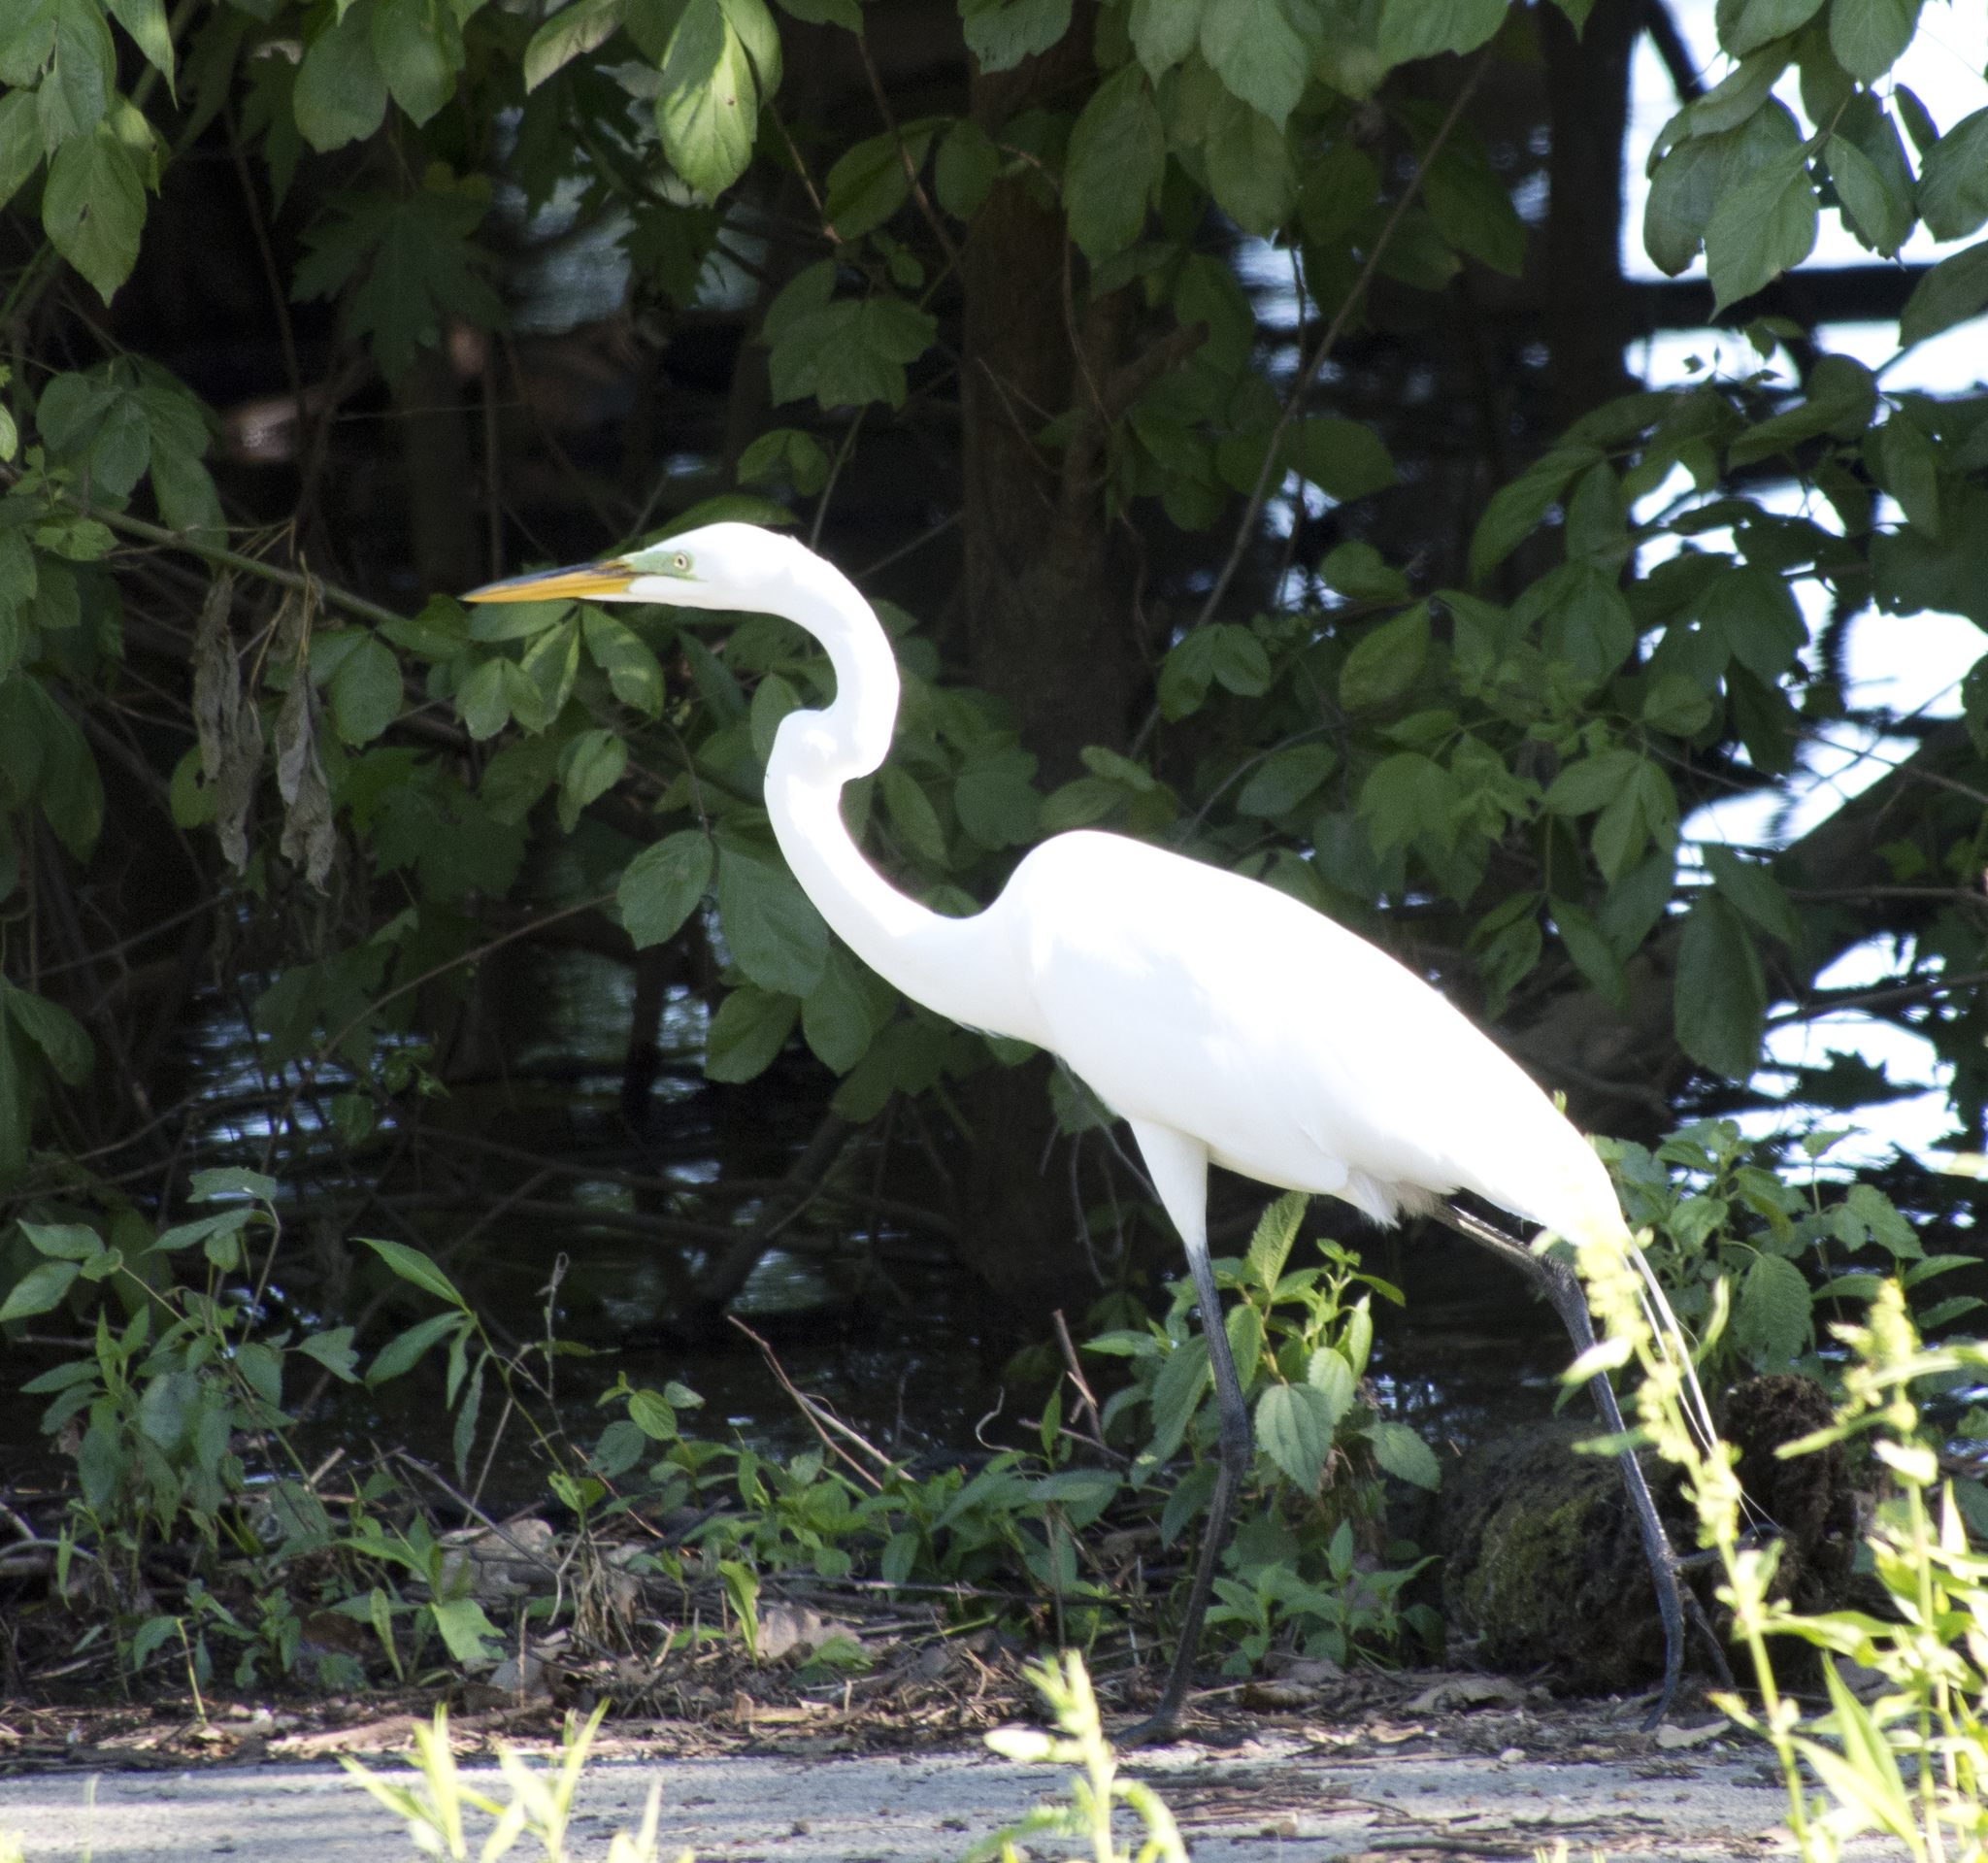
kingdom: Animalia
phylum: Chordata
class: Aves
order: Pelecaniformes
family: Ardeidae
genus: Ardea
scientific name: Ardea alba
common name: Great egret
